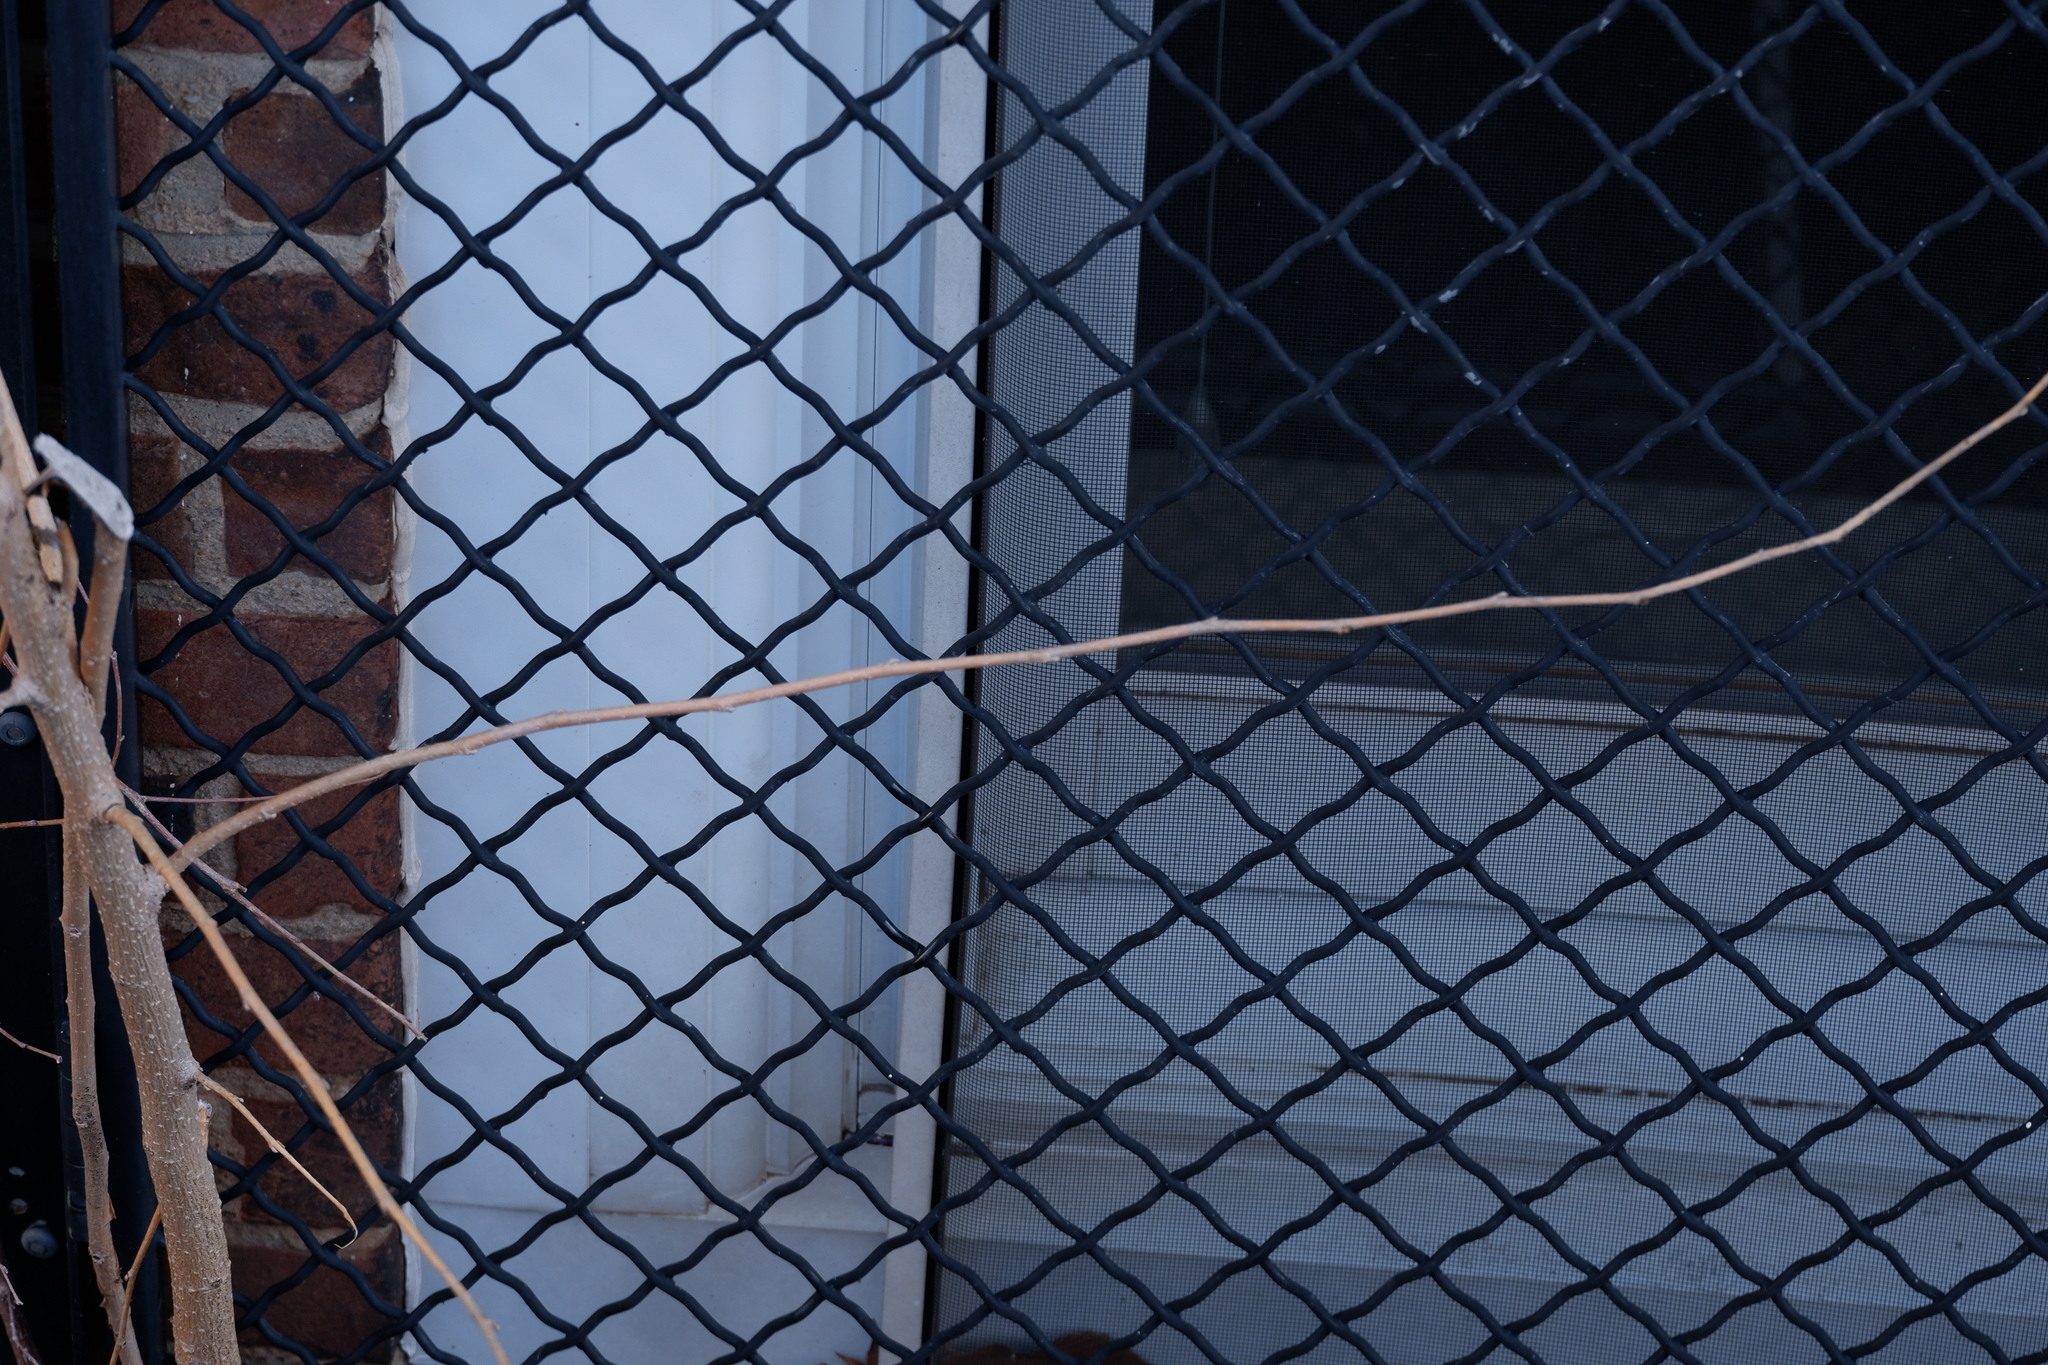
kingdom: Plantae
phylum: Tracheophyta
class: Magnoliopsida
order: Rosales
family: Moraceae
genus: Morus
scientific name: Morus alba
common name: White mulberry
